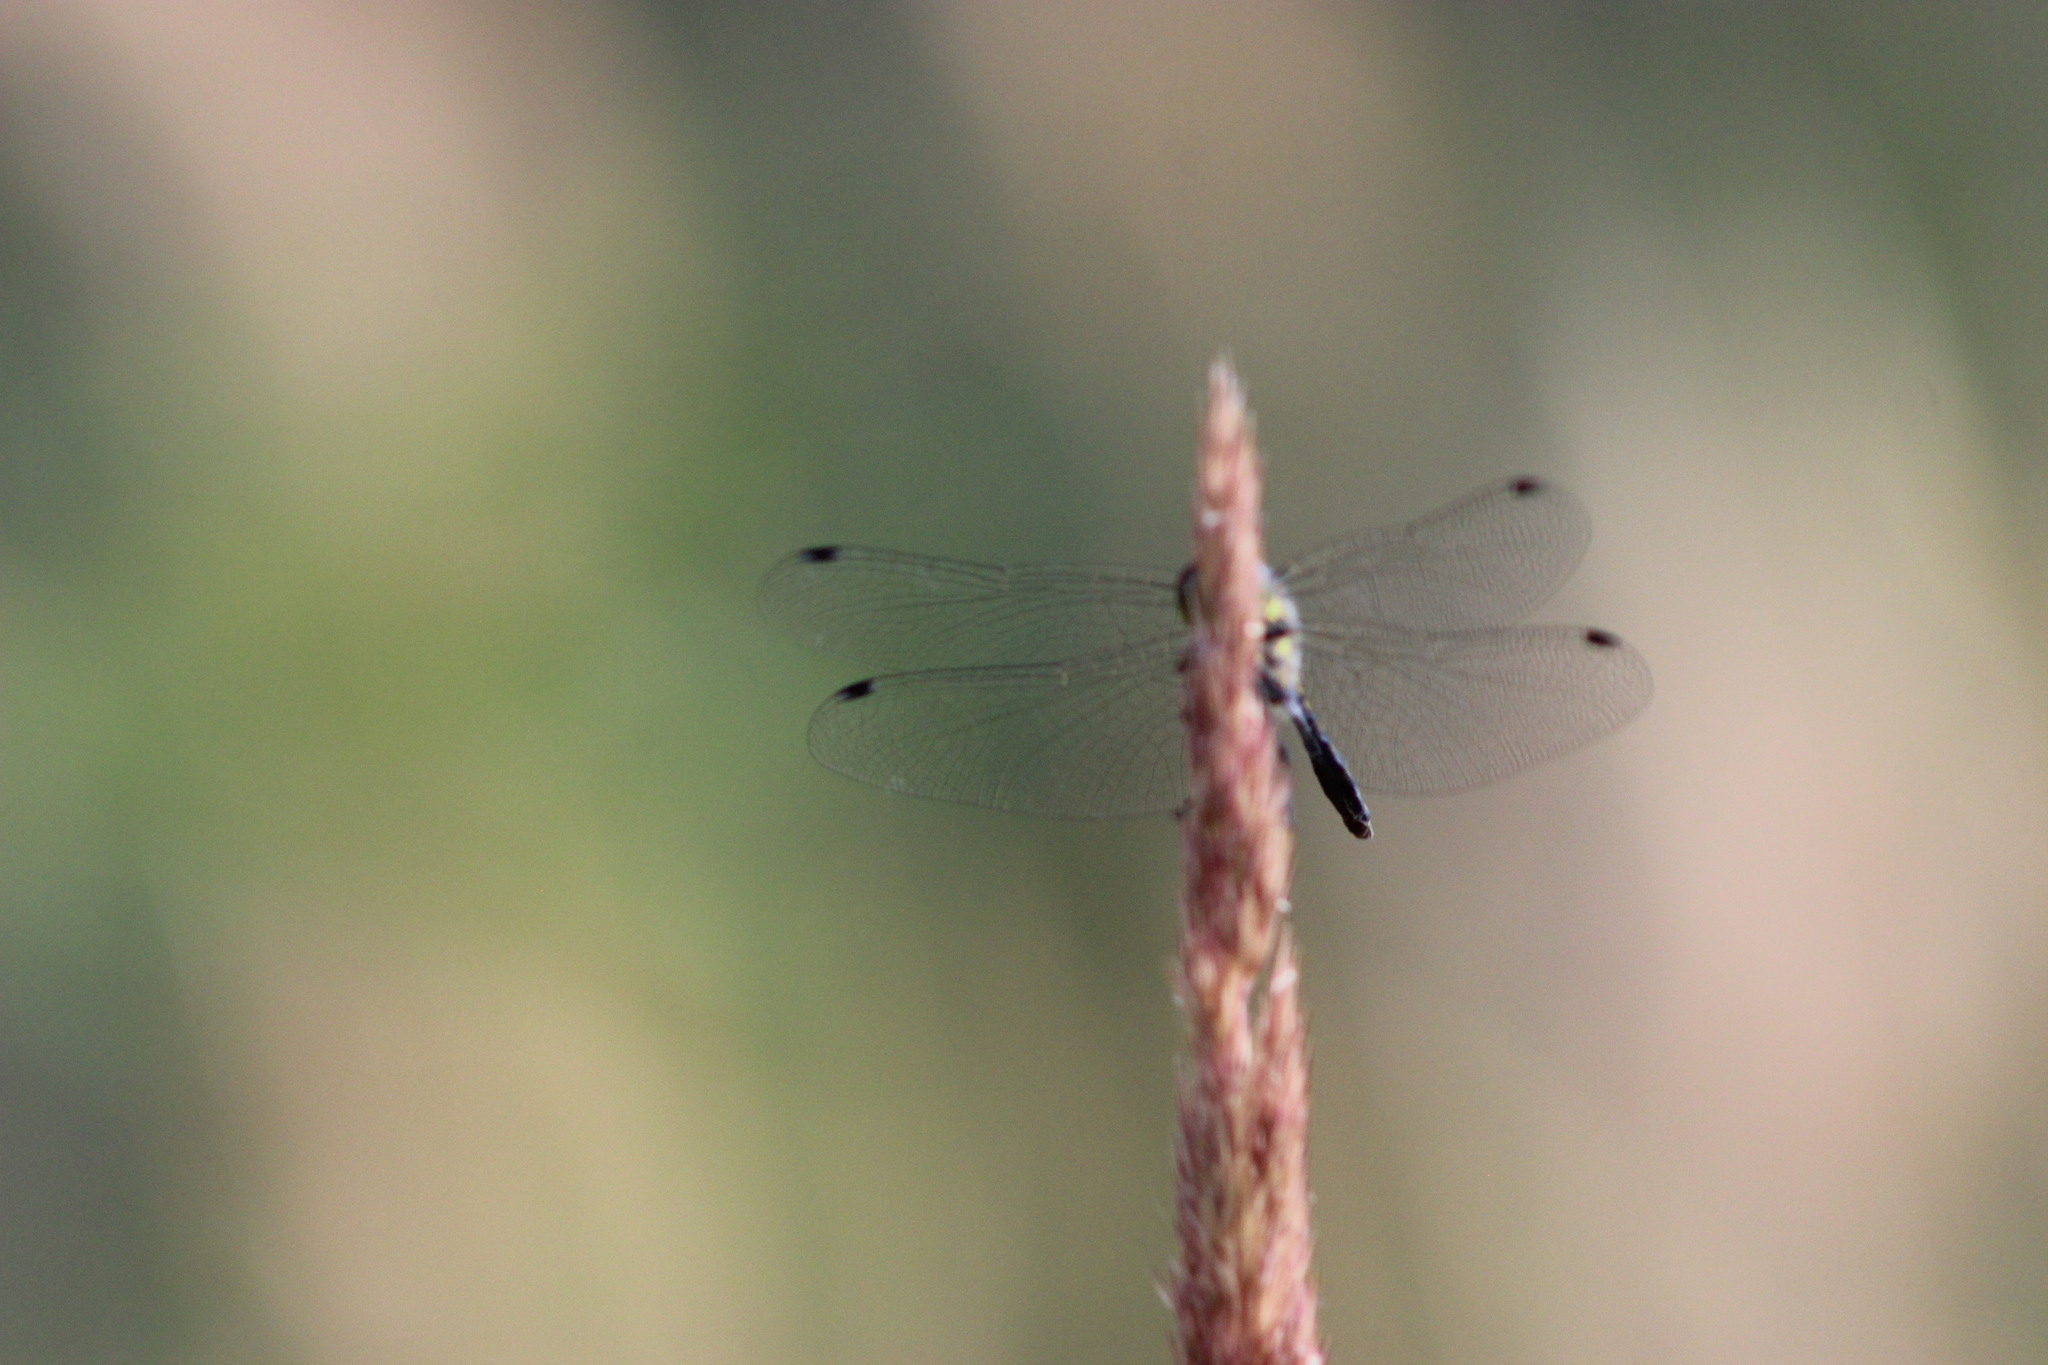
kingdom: Animalia
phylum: Arthropoda
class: Insecta
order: Odonata
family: Libellulidae
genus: Sympetrum
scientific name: Sympetrum danae
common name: Black darter
